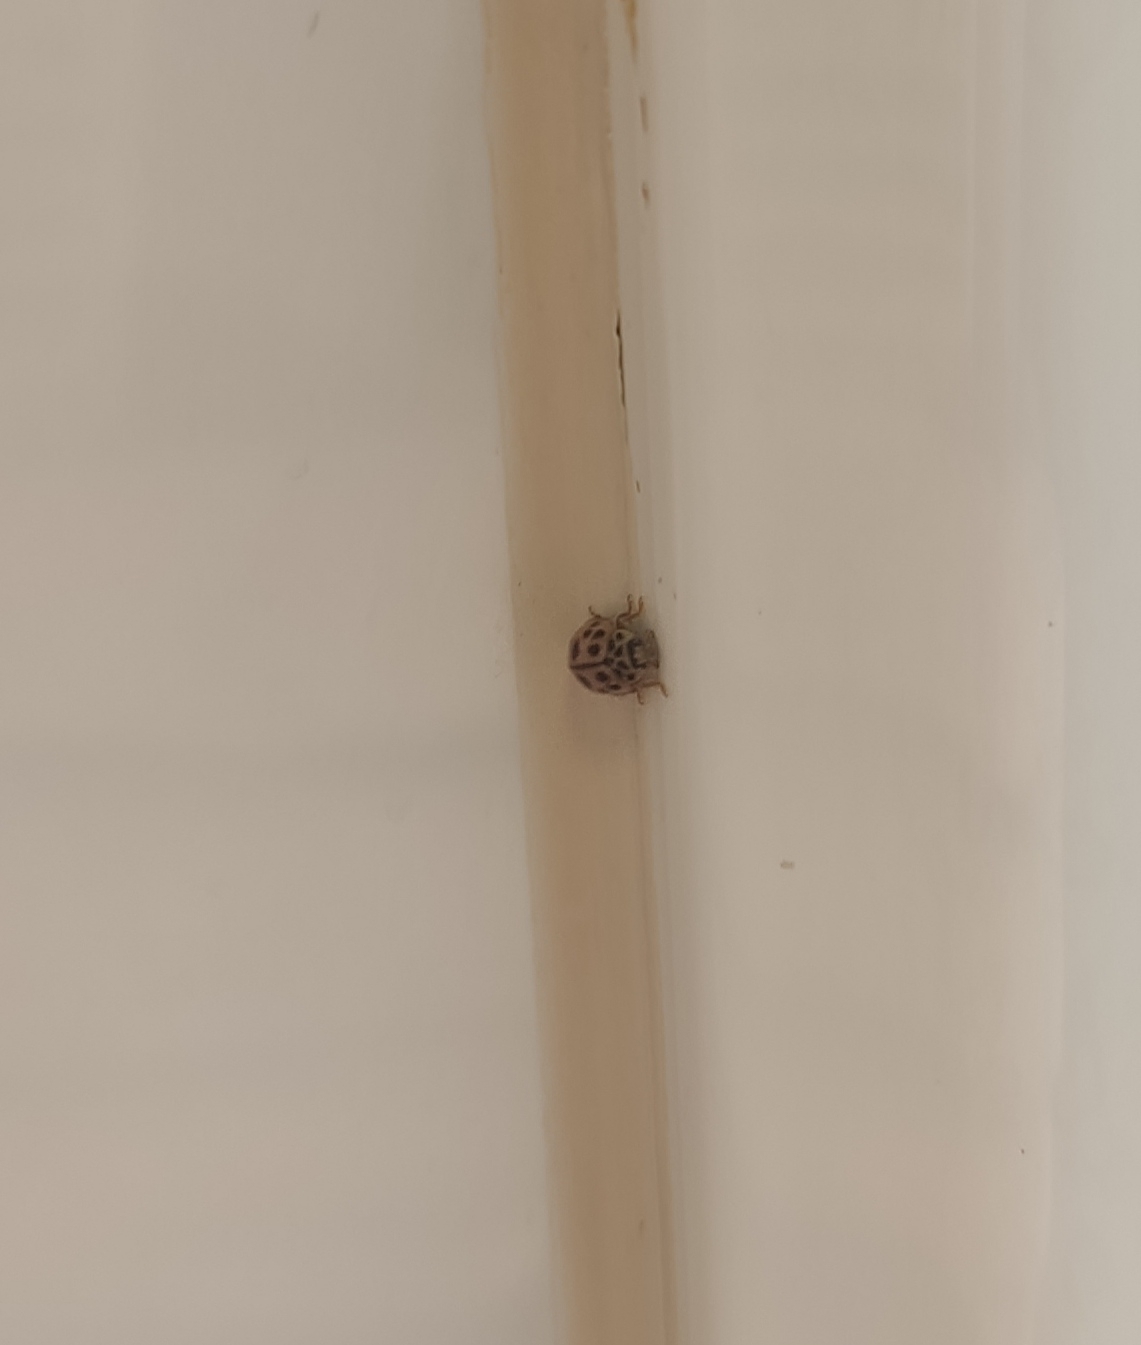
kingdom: Animalia
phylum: Arthropoda
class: Insecta
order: Coleoptera
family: Coccinellidae
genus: Oenopia
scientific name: Oenopia conglobata
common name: Ladybird beetle
